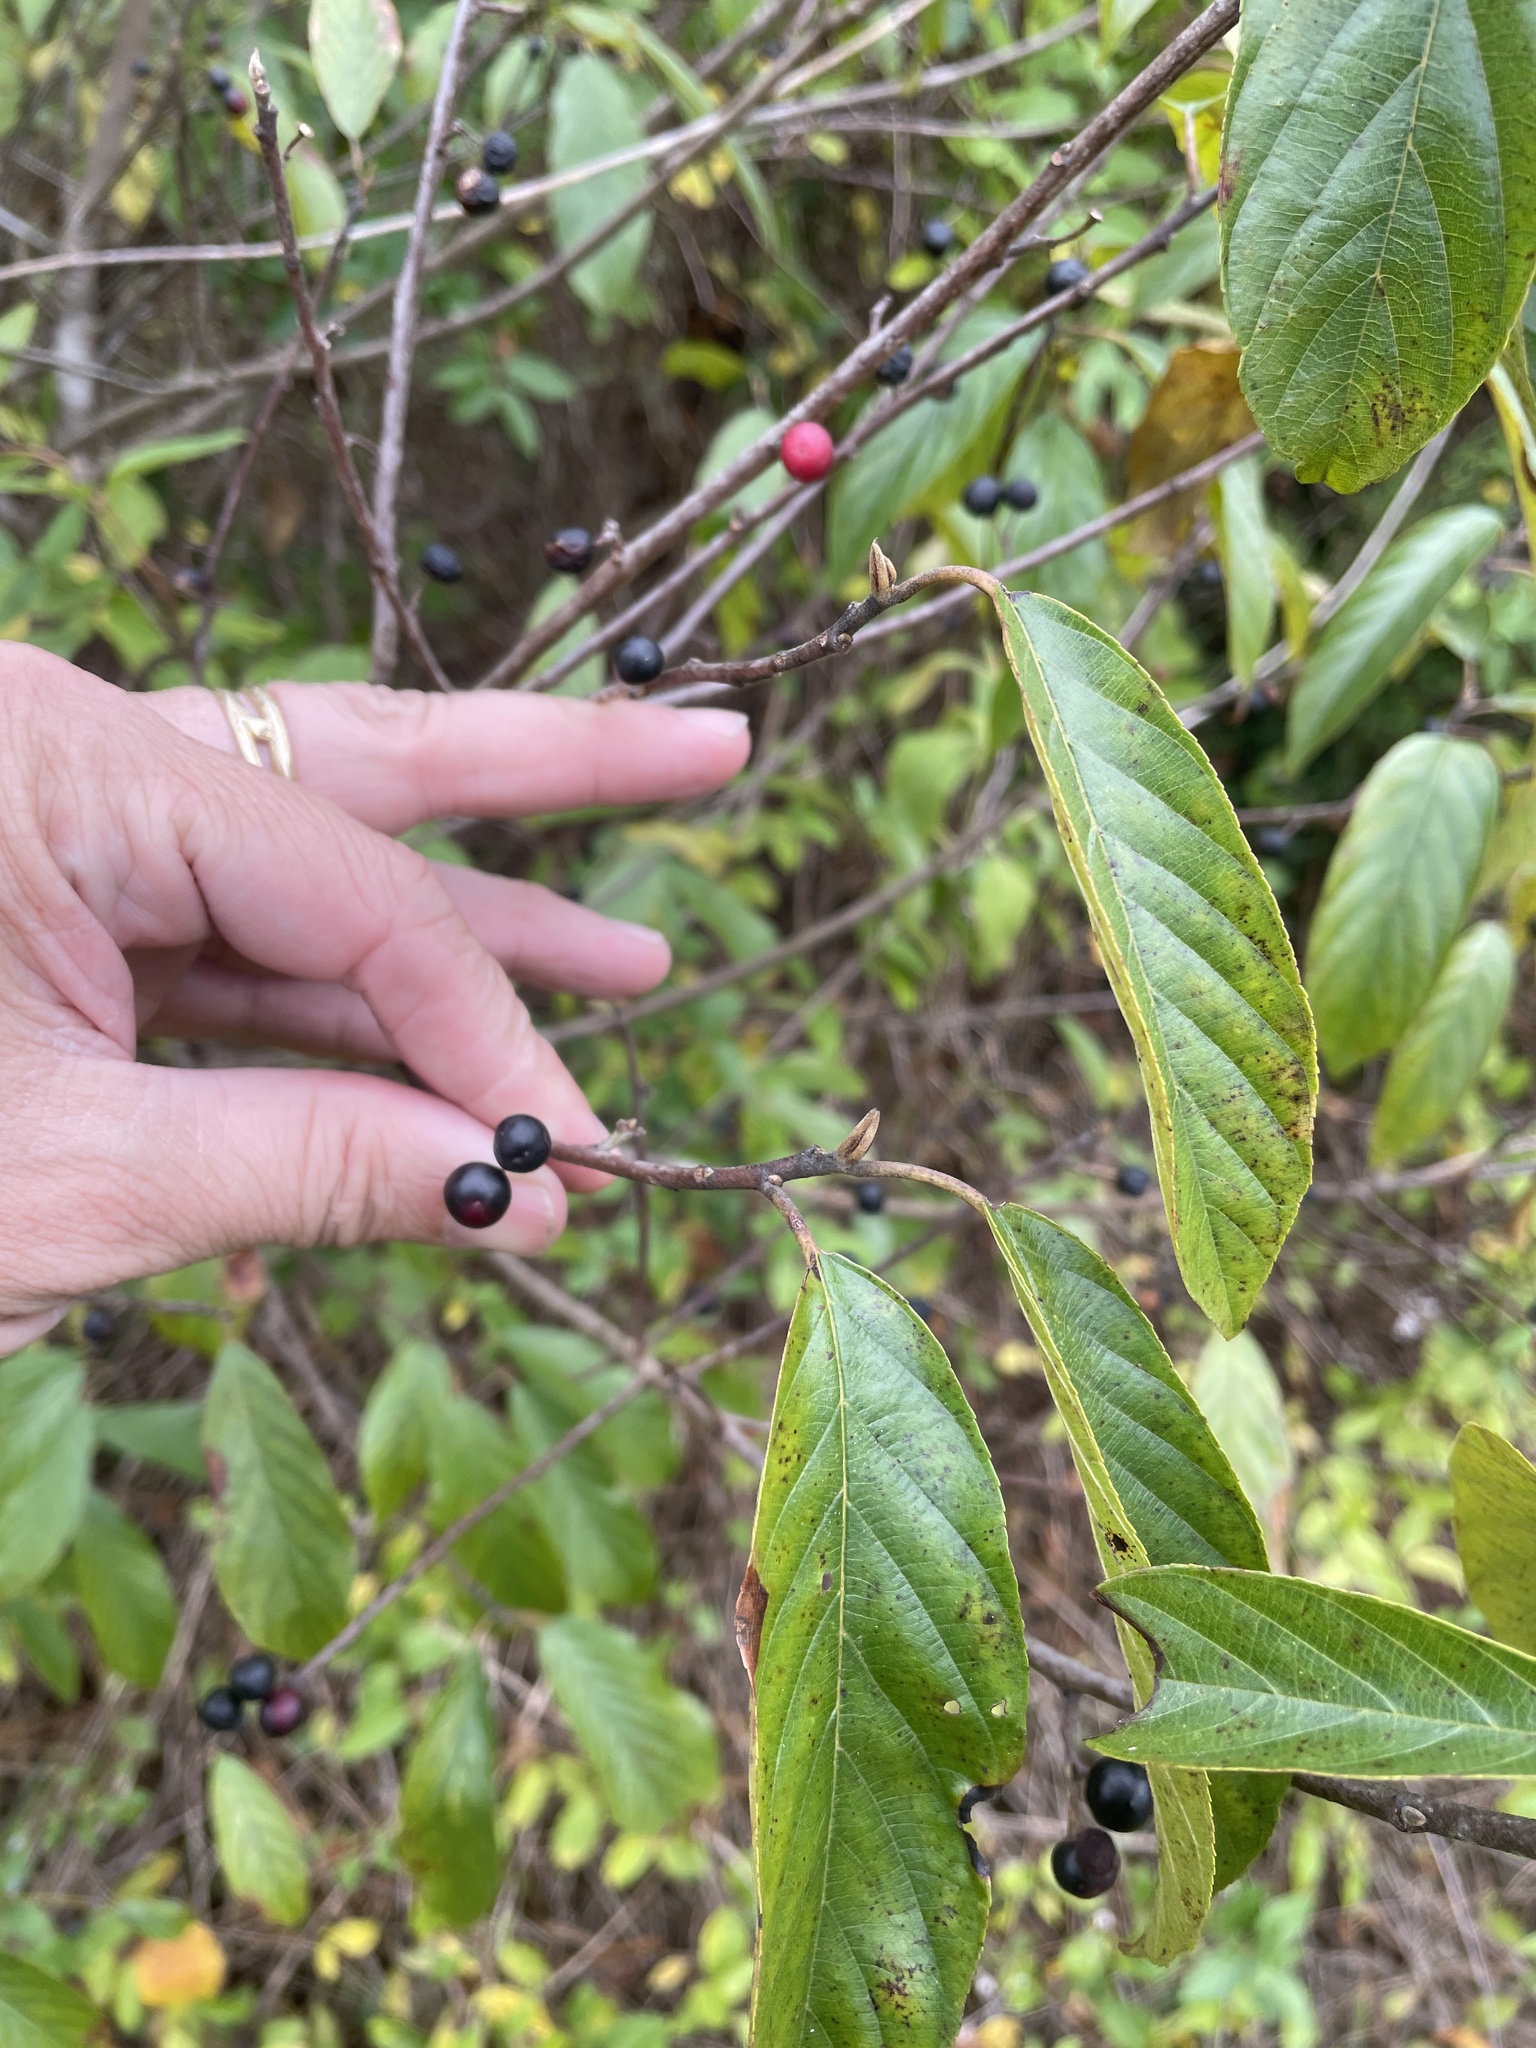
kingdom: Plantae
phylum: Tracheophyta
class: Magnoliopsida
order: Rosales
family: Rhamnaceae
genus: Frangula
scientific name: Frangula caroliniana
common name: Carolina buckthorn
